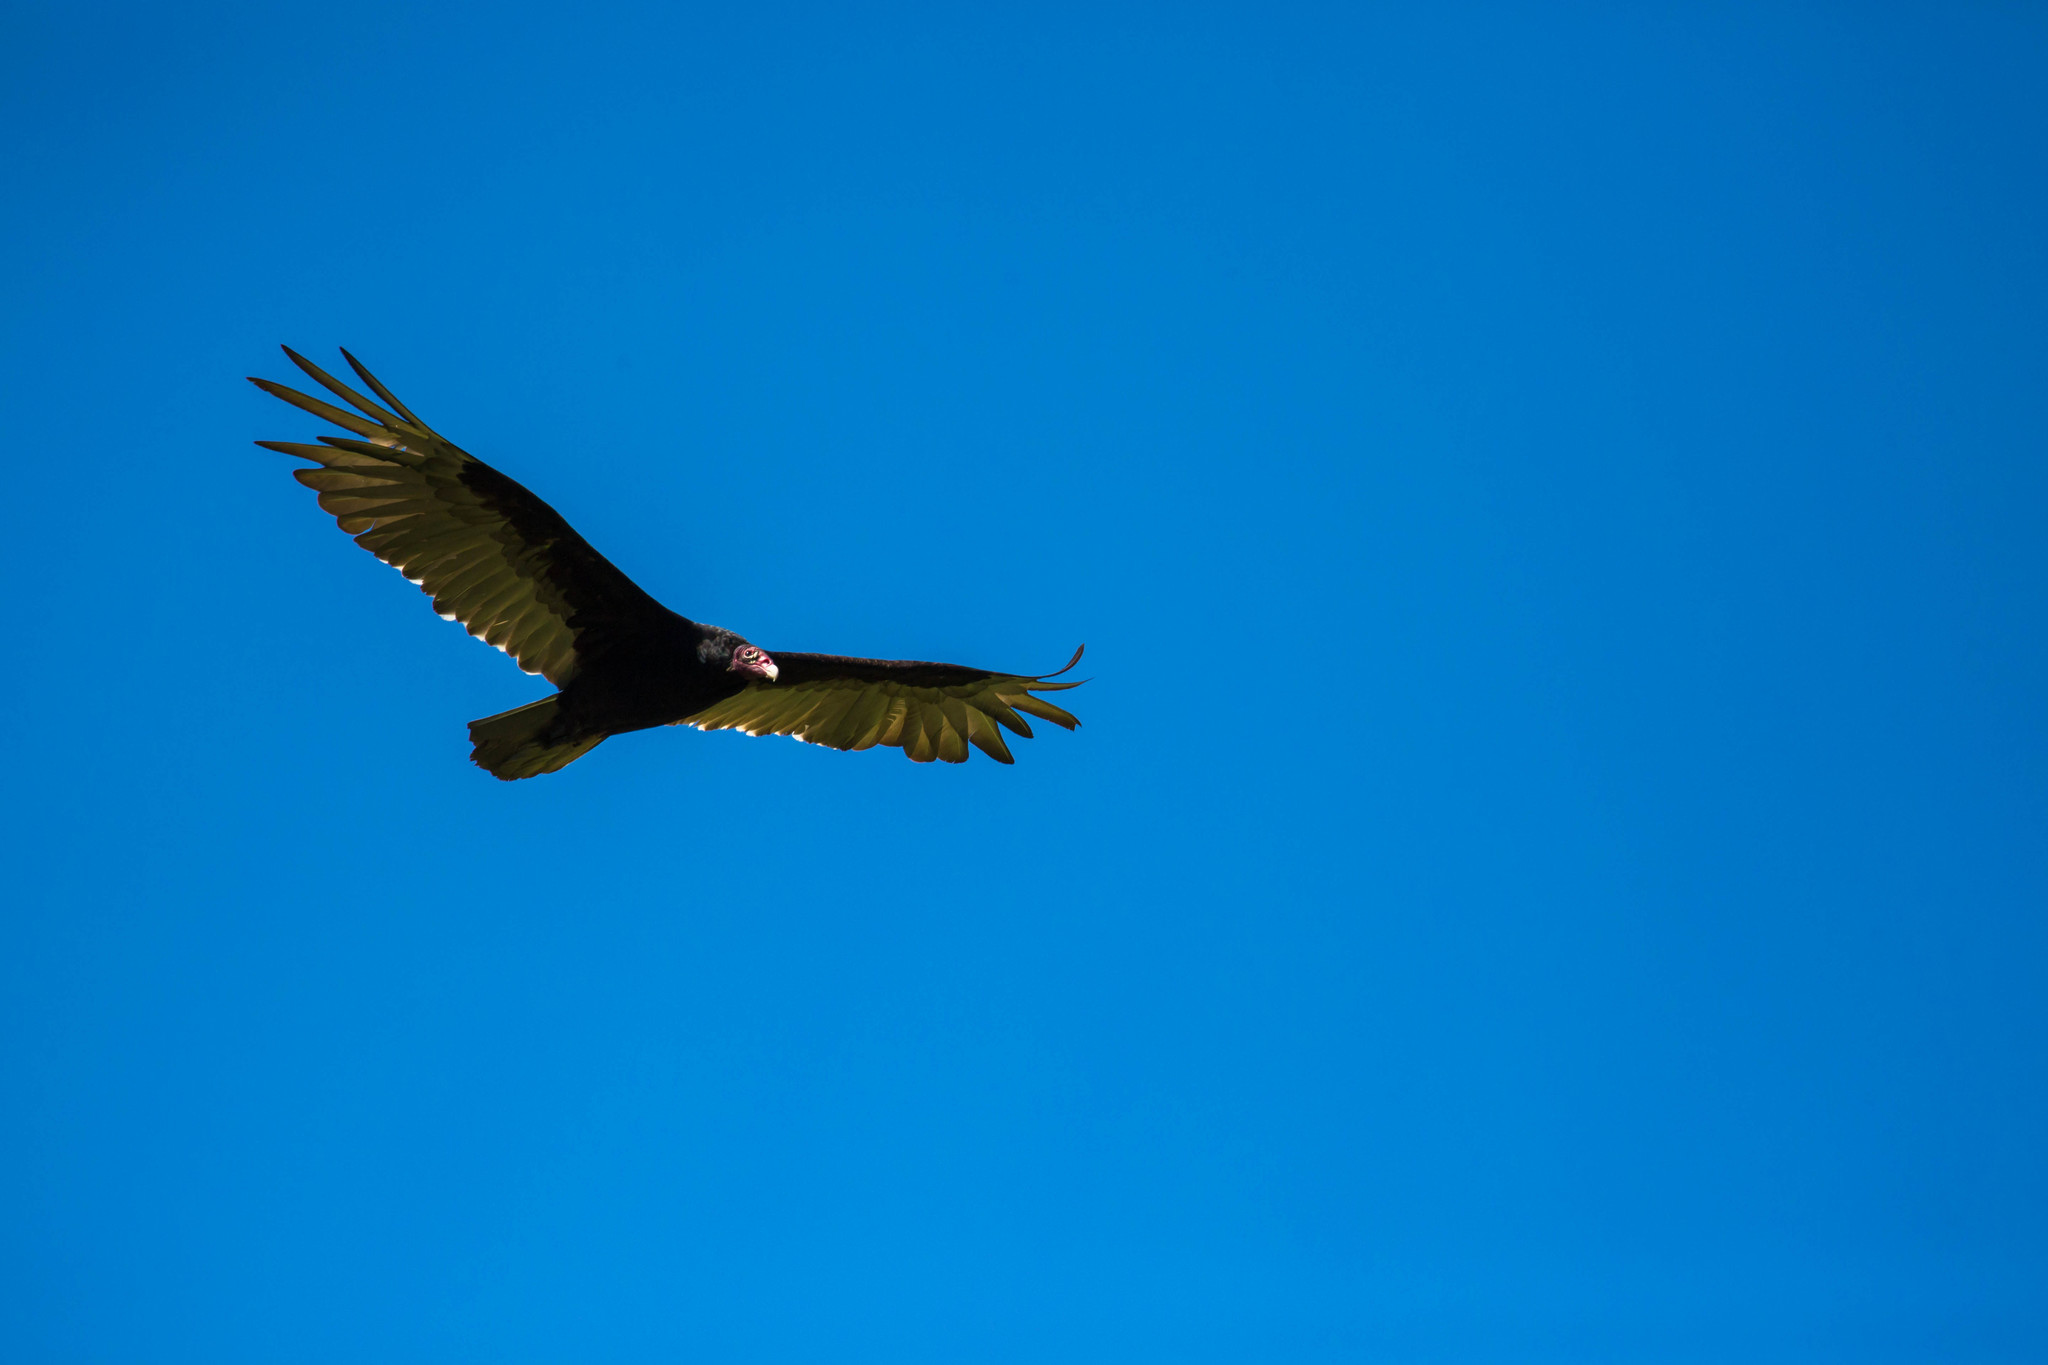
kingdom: Animalia
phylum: Chordata
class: Aves
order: Accipitriformes
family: Cathartidae
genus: Cathartes
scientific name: Cathartes aura
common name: Turkey vulture
